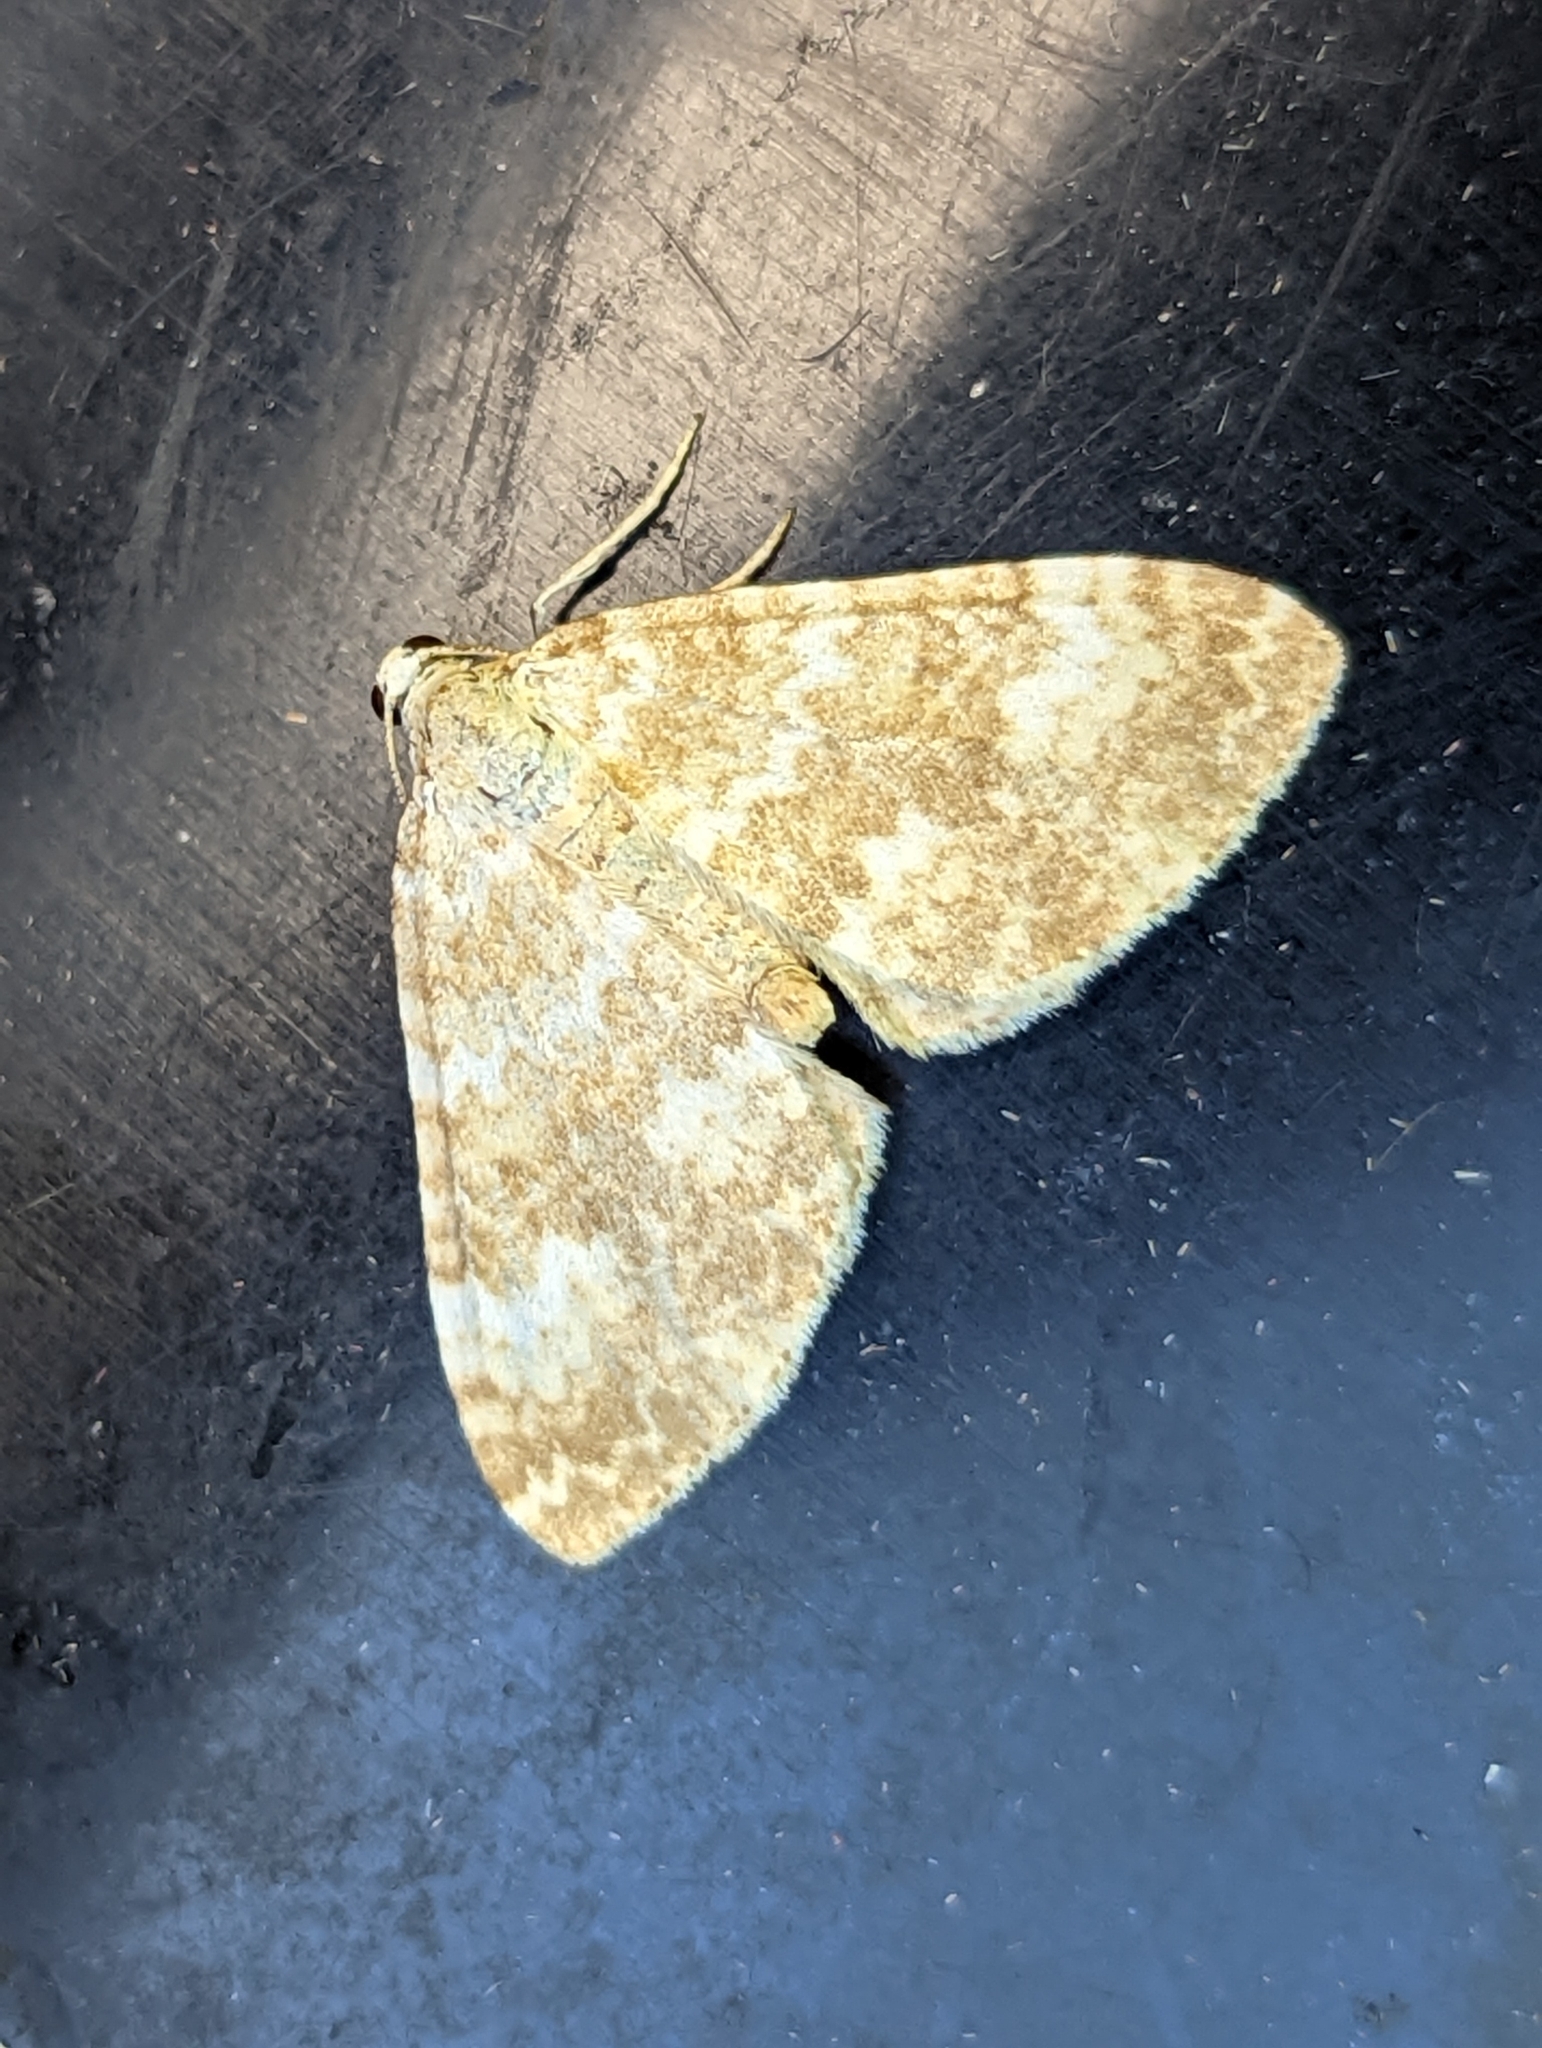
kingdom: Animalia
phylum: Arthropoda
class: Insecta
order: Lepidoptera
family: Geometridae
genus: Perizoma
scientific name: Perizoma flavofasciata
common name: Sandy carpet
